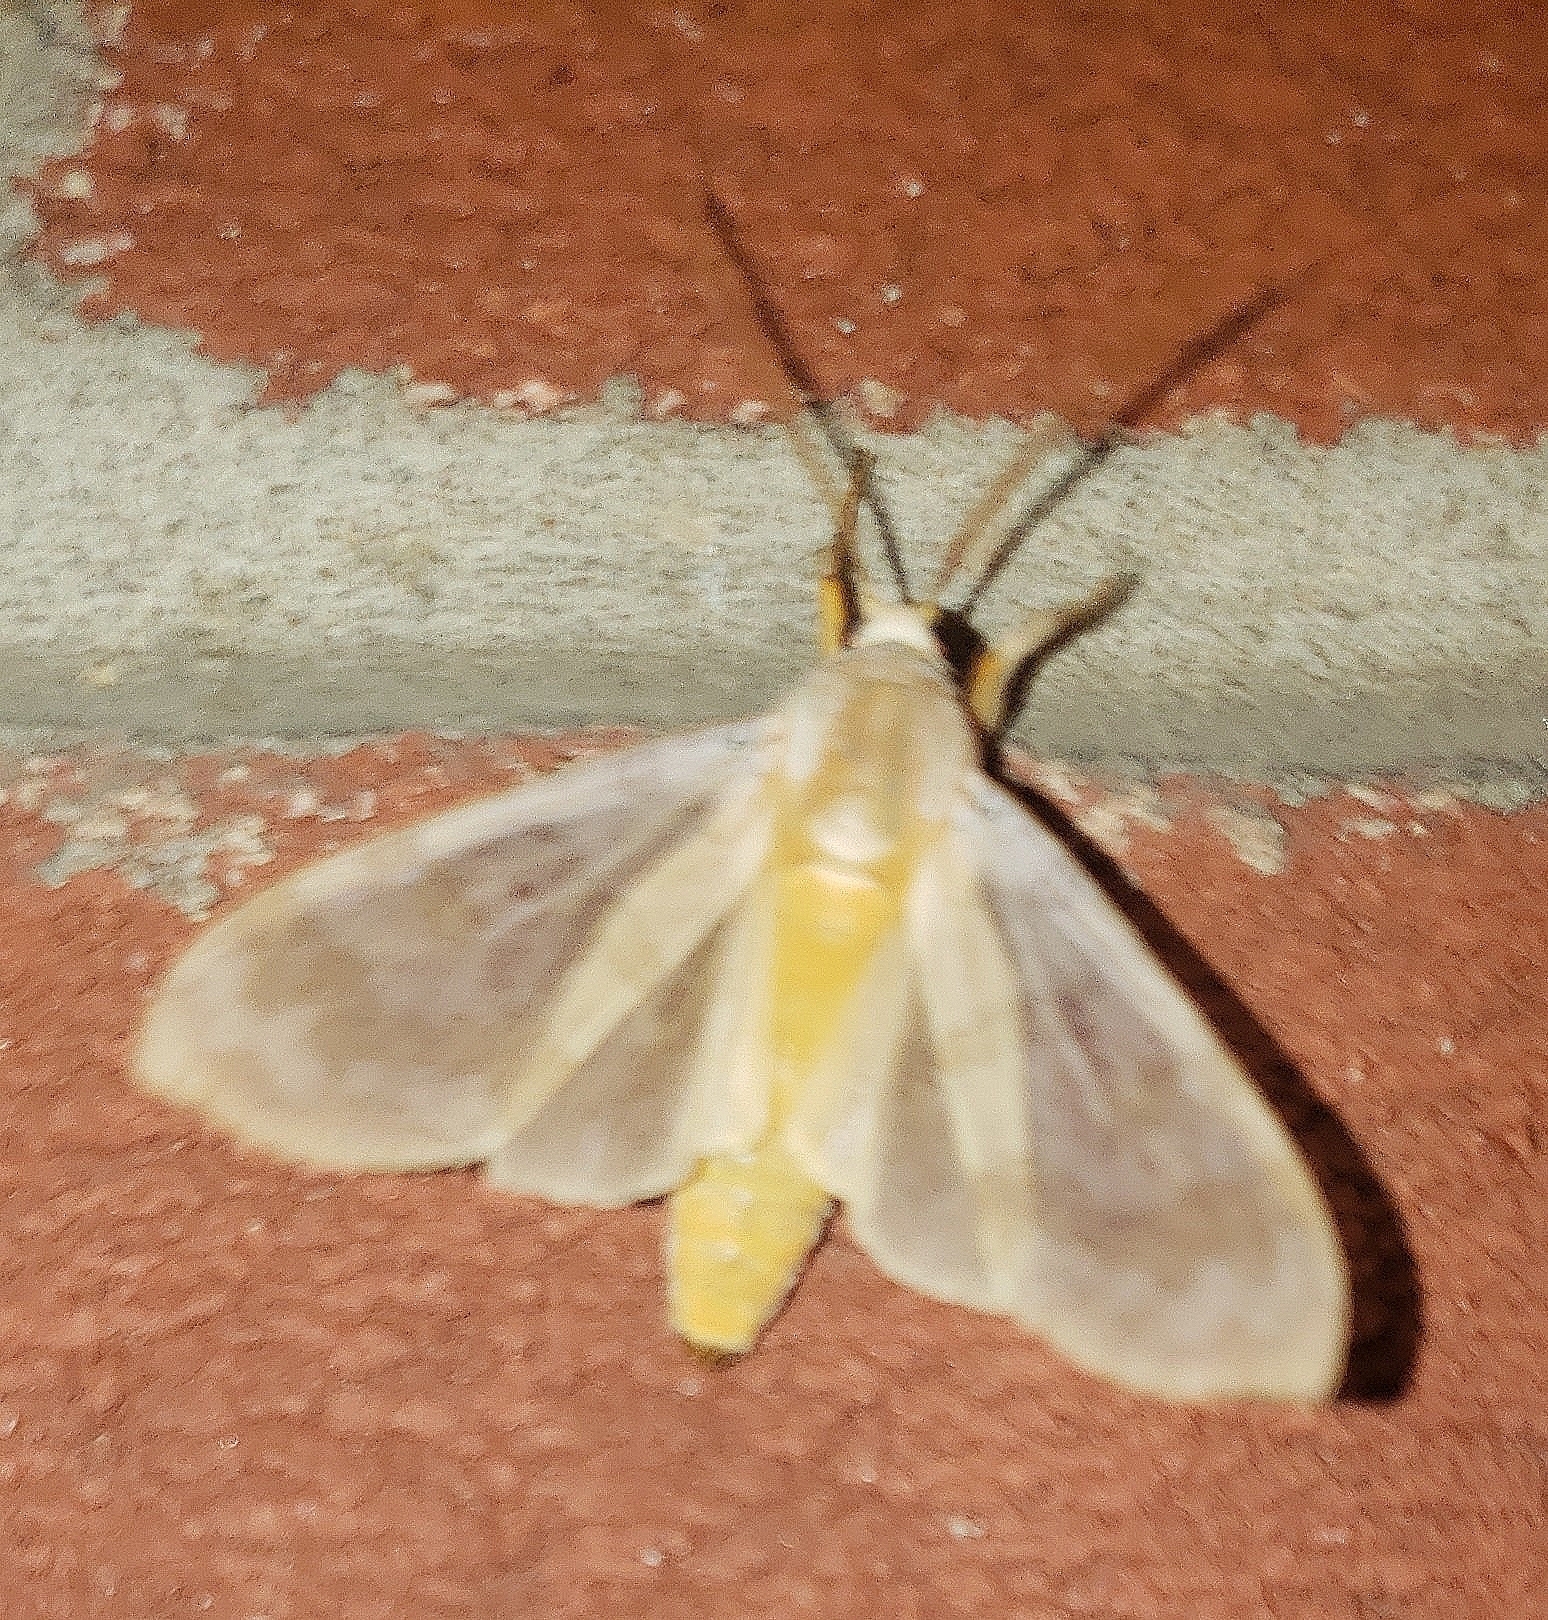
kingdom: Animalia
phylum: Arthropoda
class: Insecta
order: Lepidoptera
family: Erebidae
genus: Halysidota
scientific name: Halysidota
